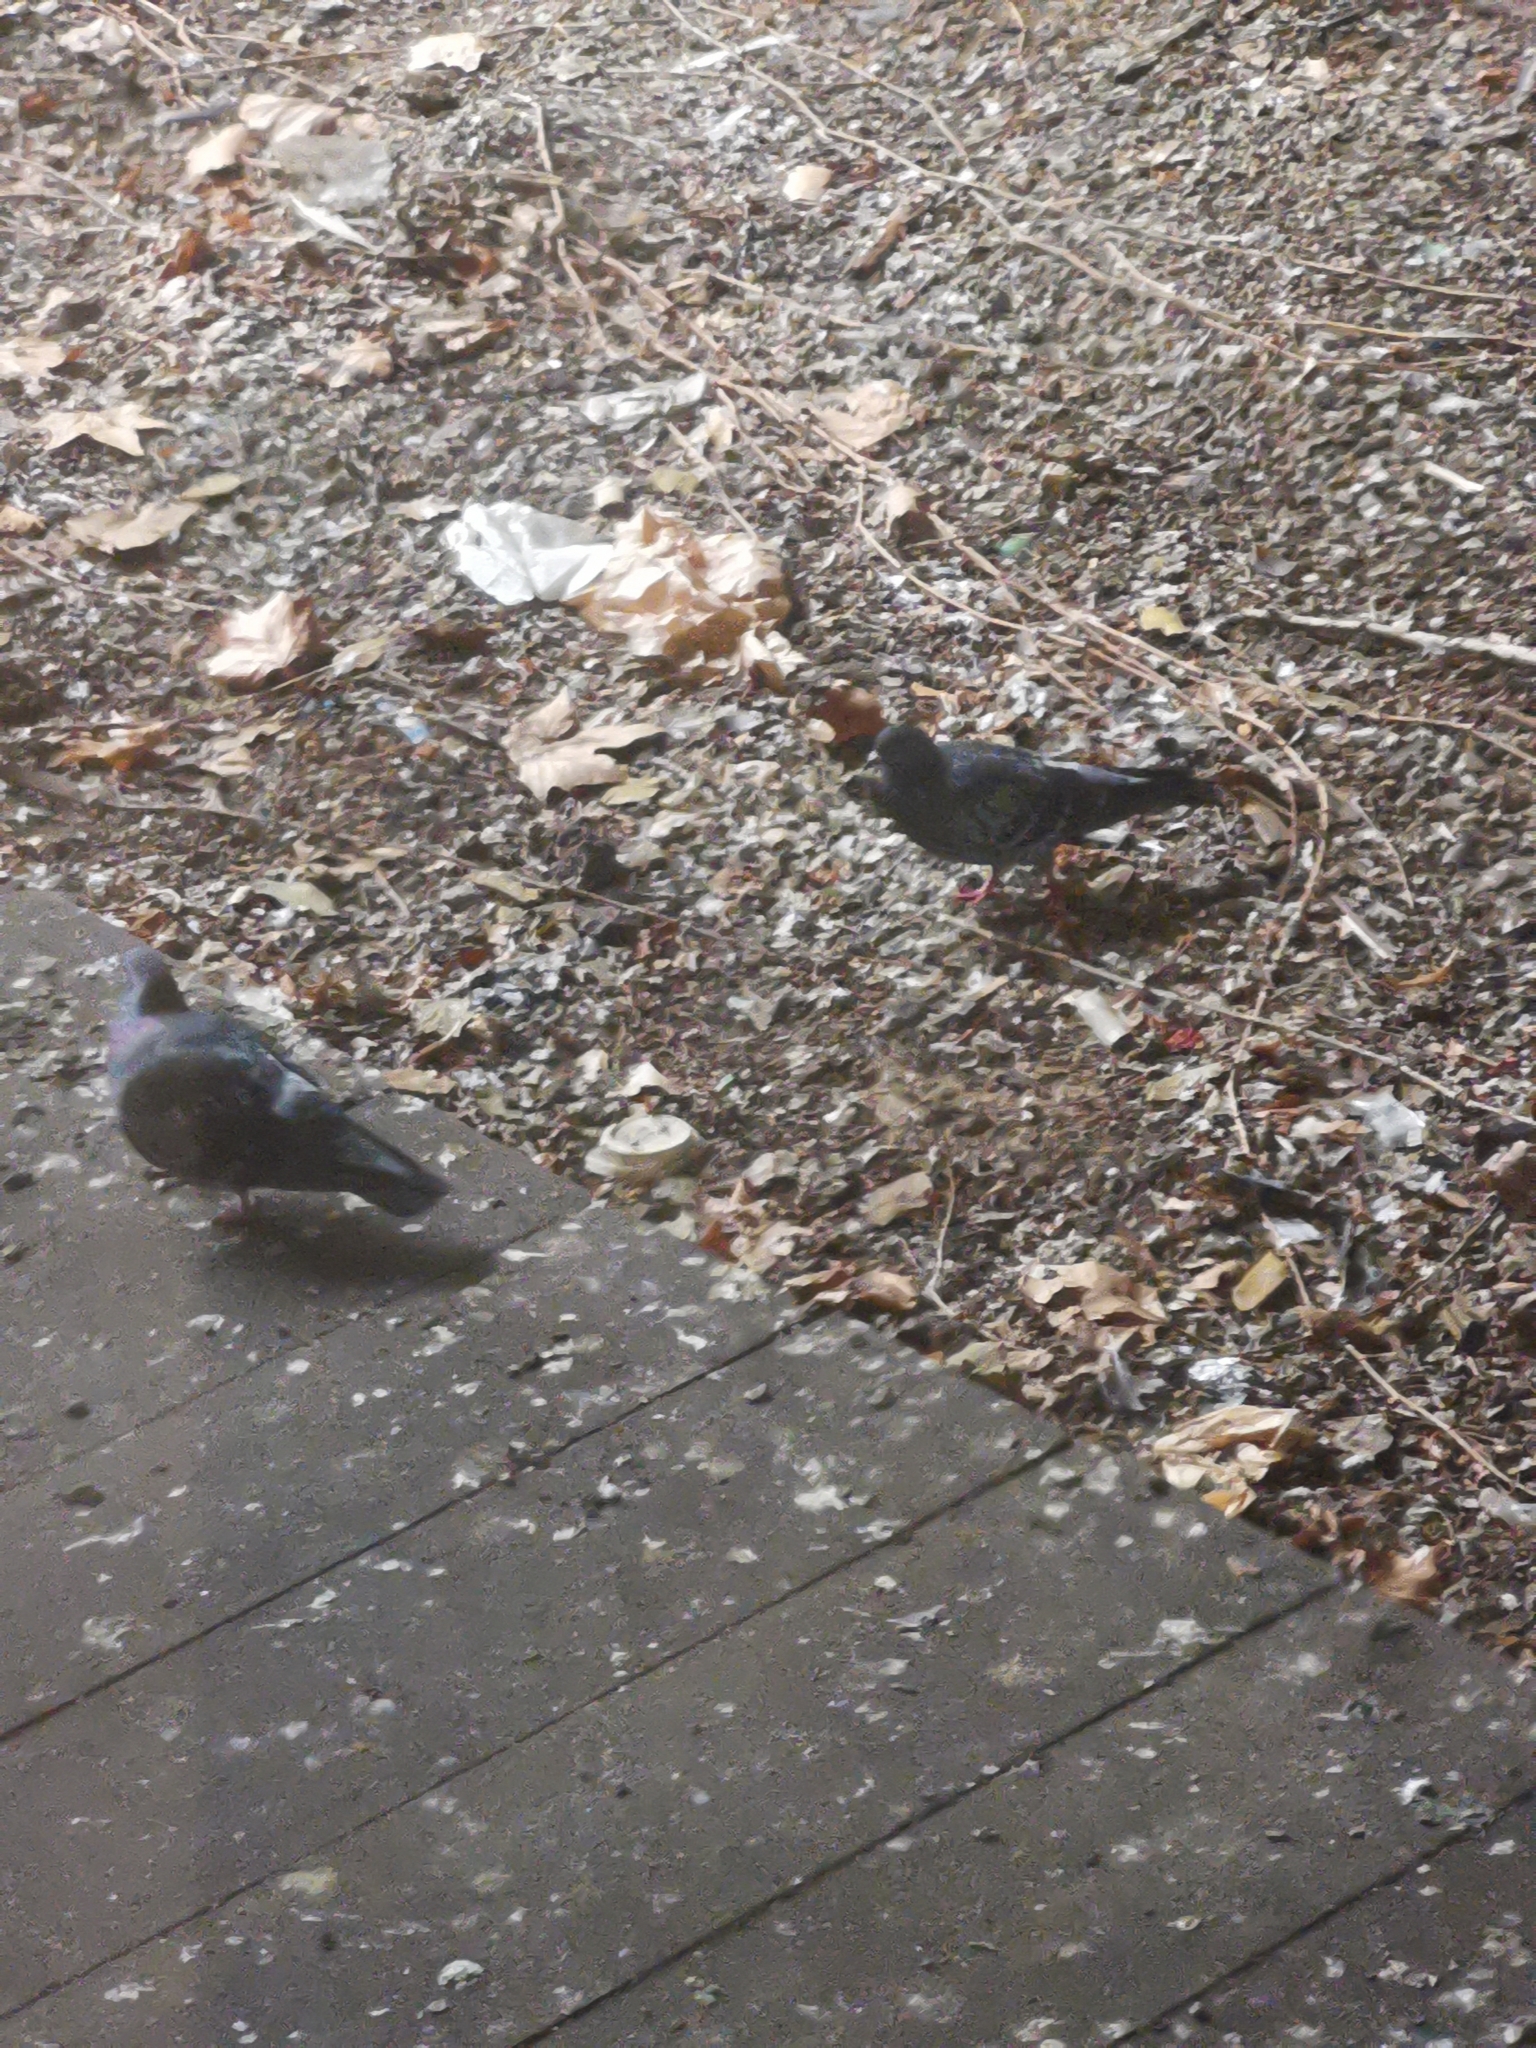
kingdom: Animalia
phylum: Chordata
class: Aves
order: Columbiformes
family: Columbidae
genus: Columba
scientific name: Columba livia
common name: Rock pigeon
